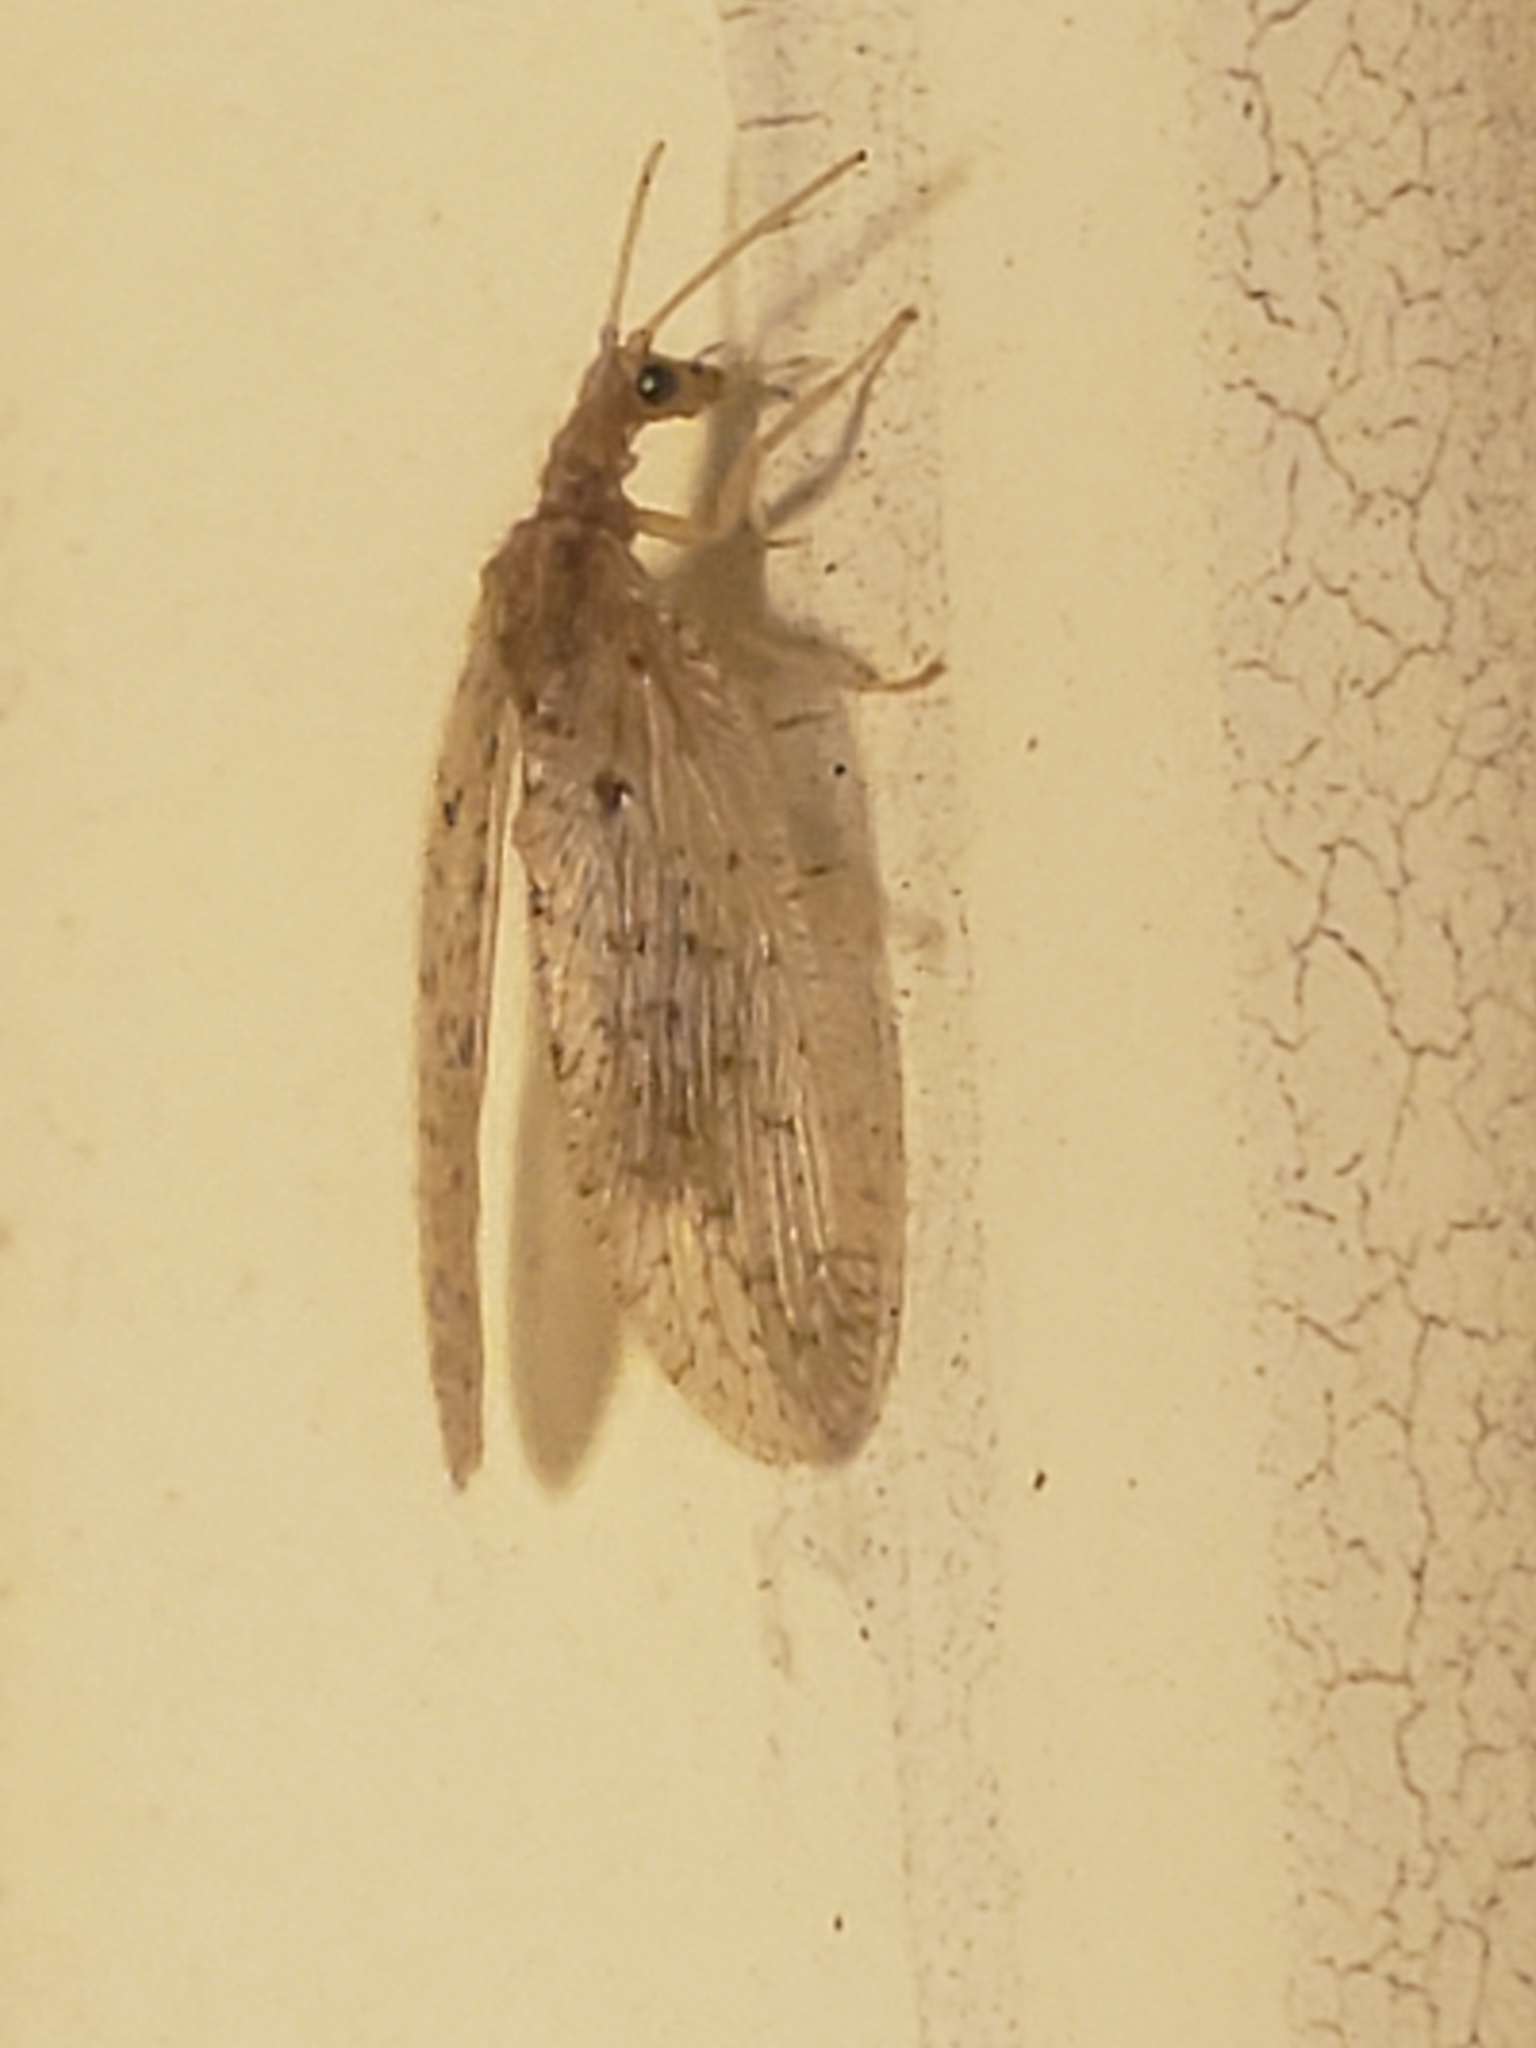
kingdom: Animalia
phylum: Arthropoda
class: Insecta
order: Neuroptera
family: Hemerobiidae
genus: Micromus
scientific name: Micromus subanticus
